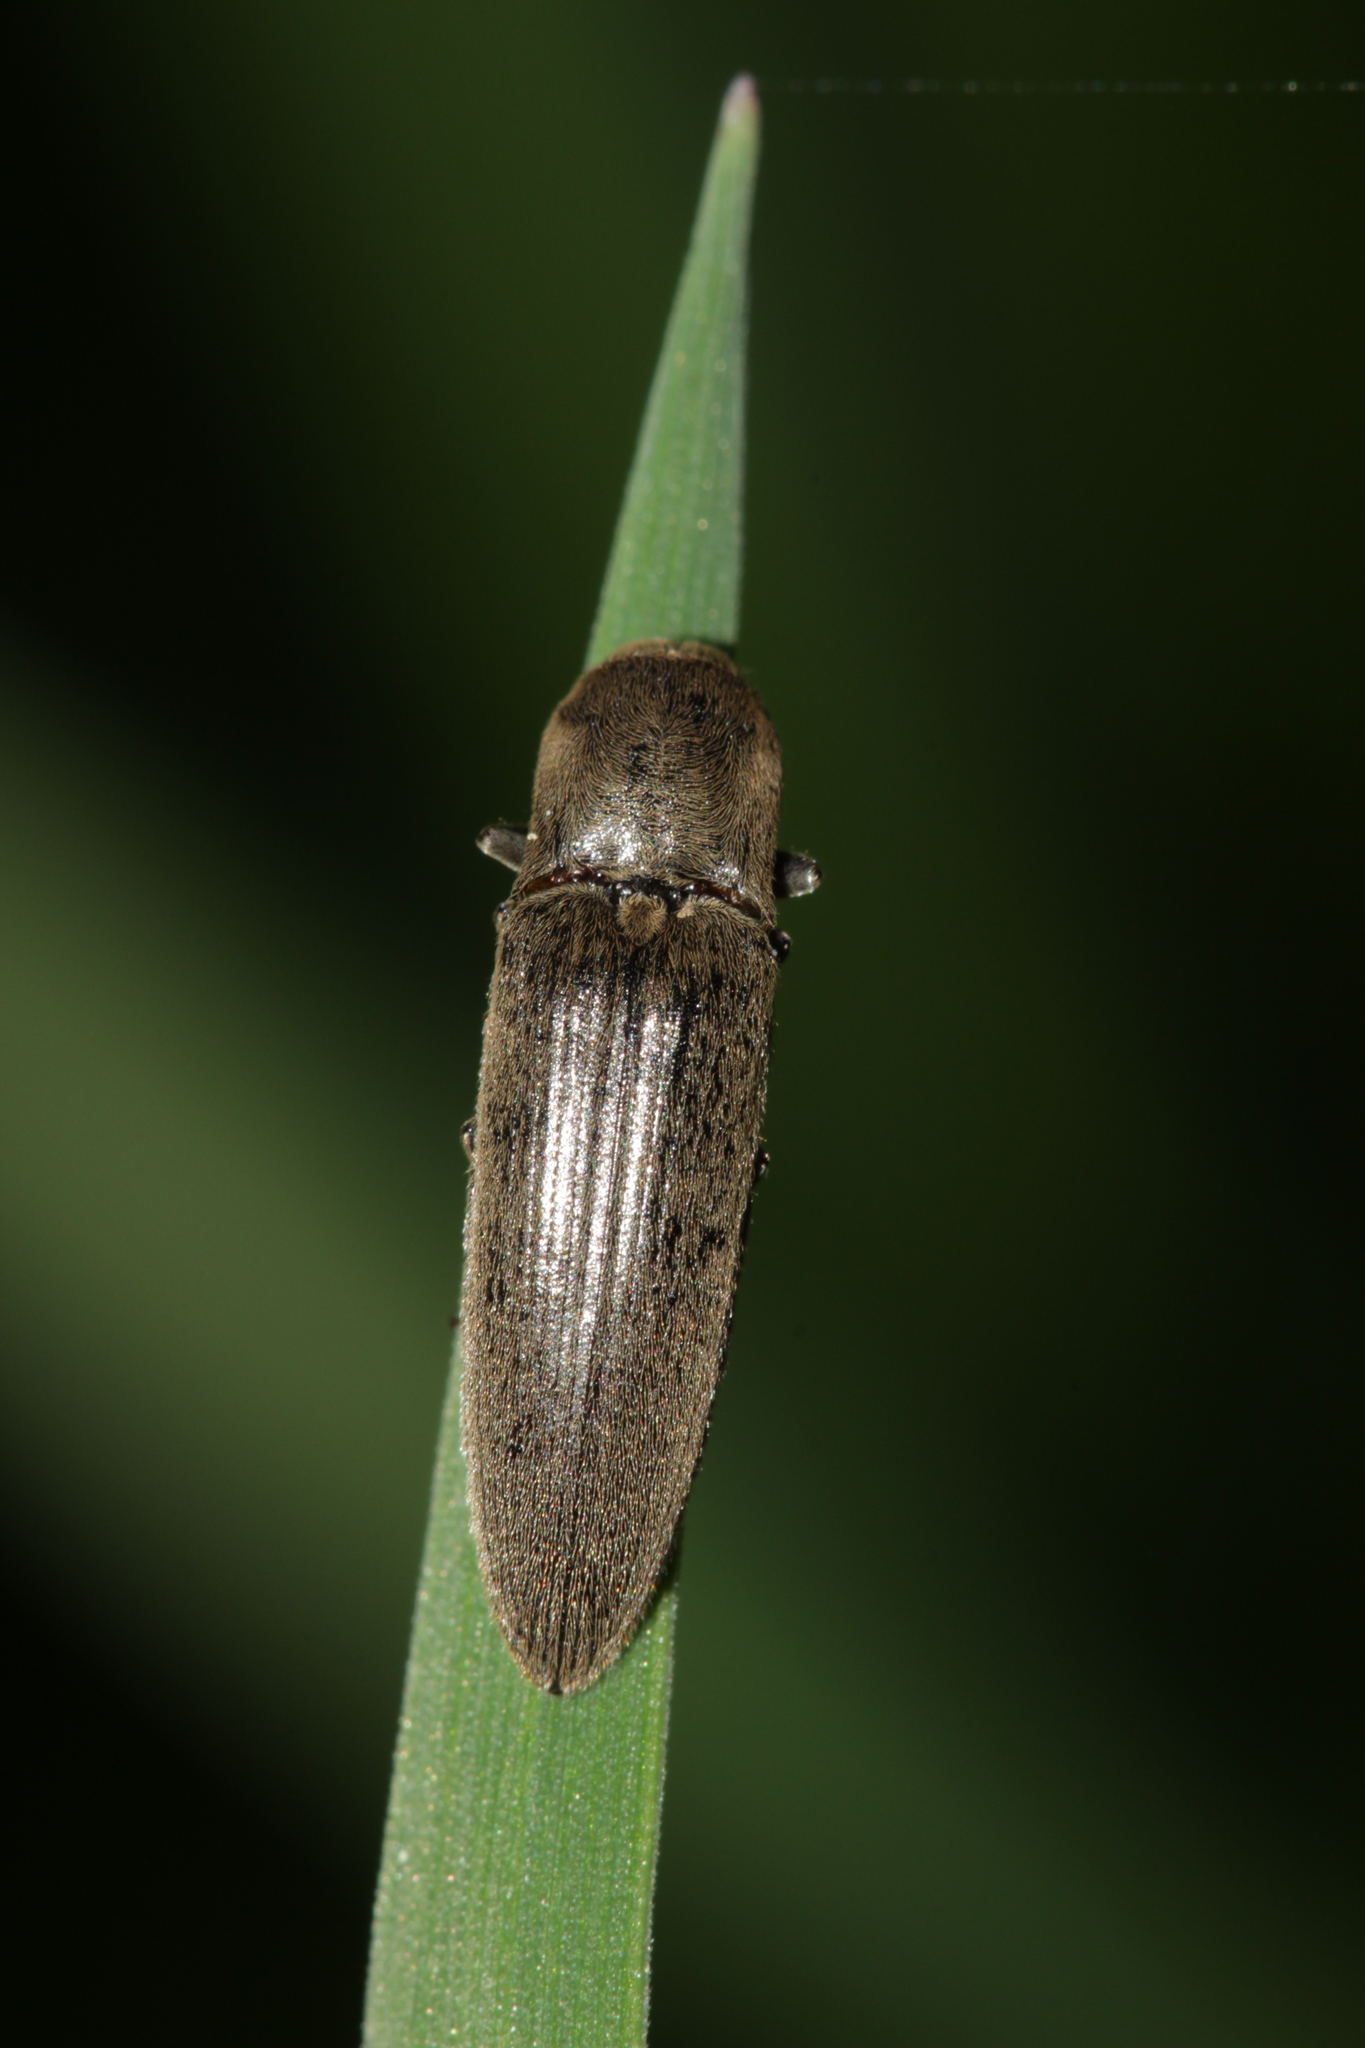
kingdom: Animalia
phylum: Arthropoda
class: Insecta
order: Coleoptera
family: Elateridae
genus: Synaptus
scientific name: Synaptus filiformis
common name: Hairy click beetle
